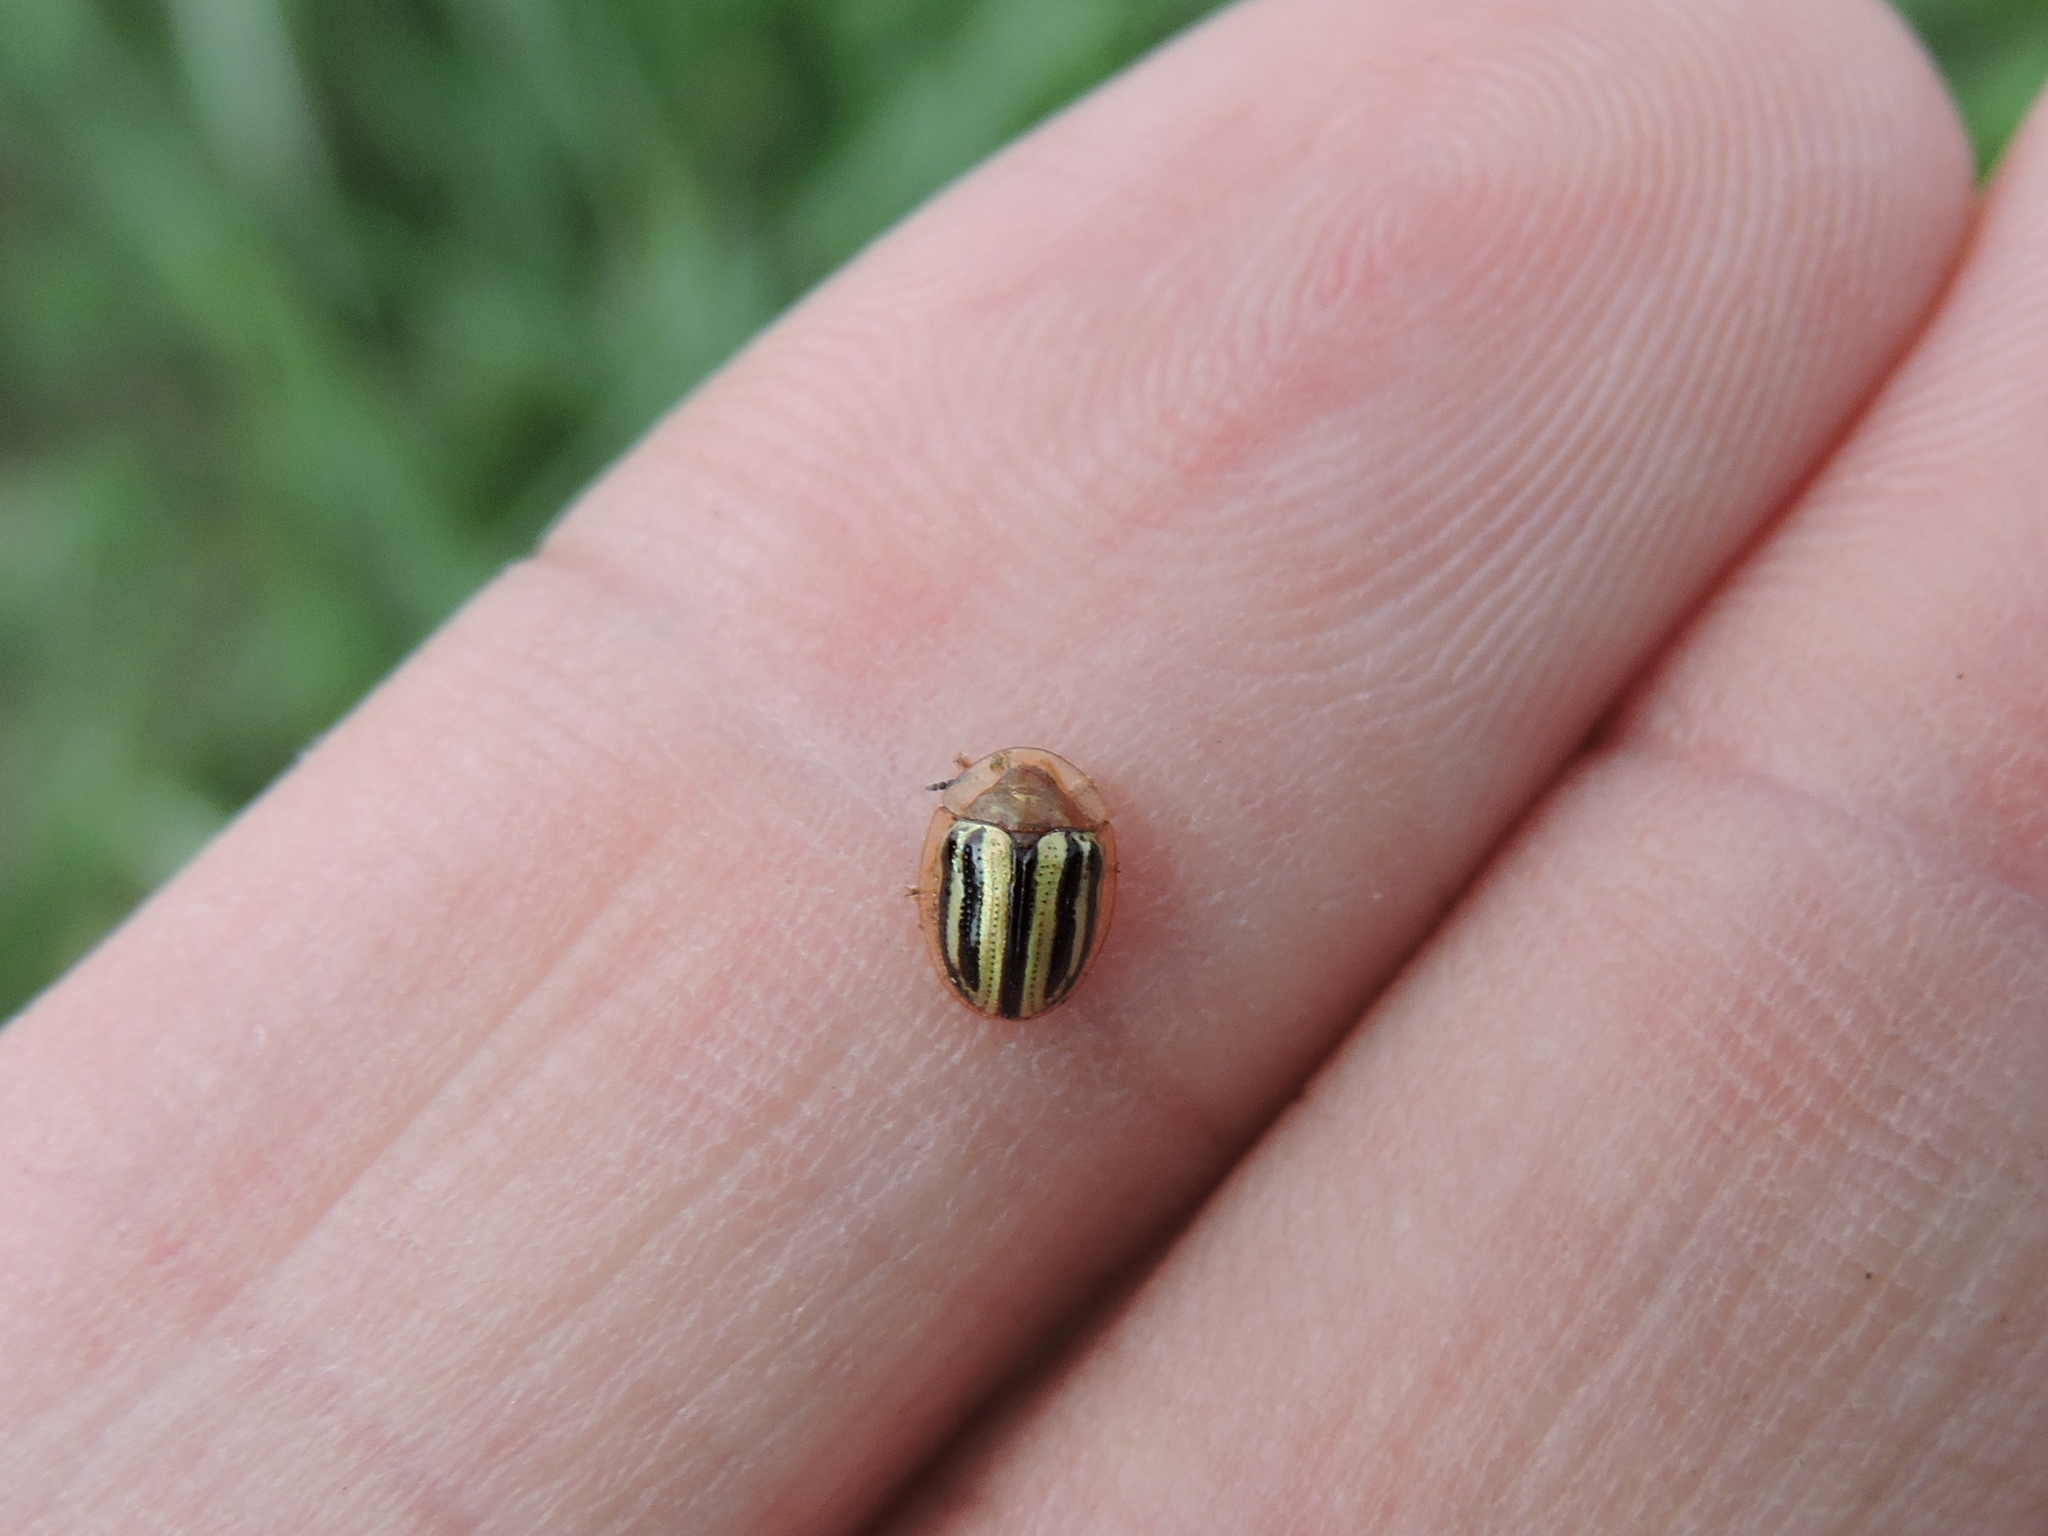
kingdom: Animalia
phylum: Arthropoda
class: Insecta
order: Coleoptera
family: Chrysomelidae
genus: Agroiconota
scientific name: Agroiconota bivittata
